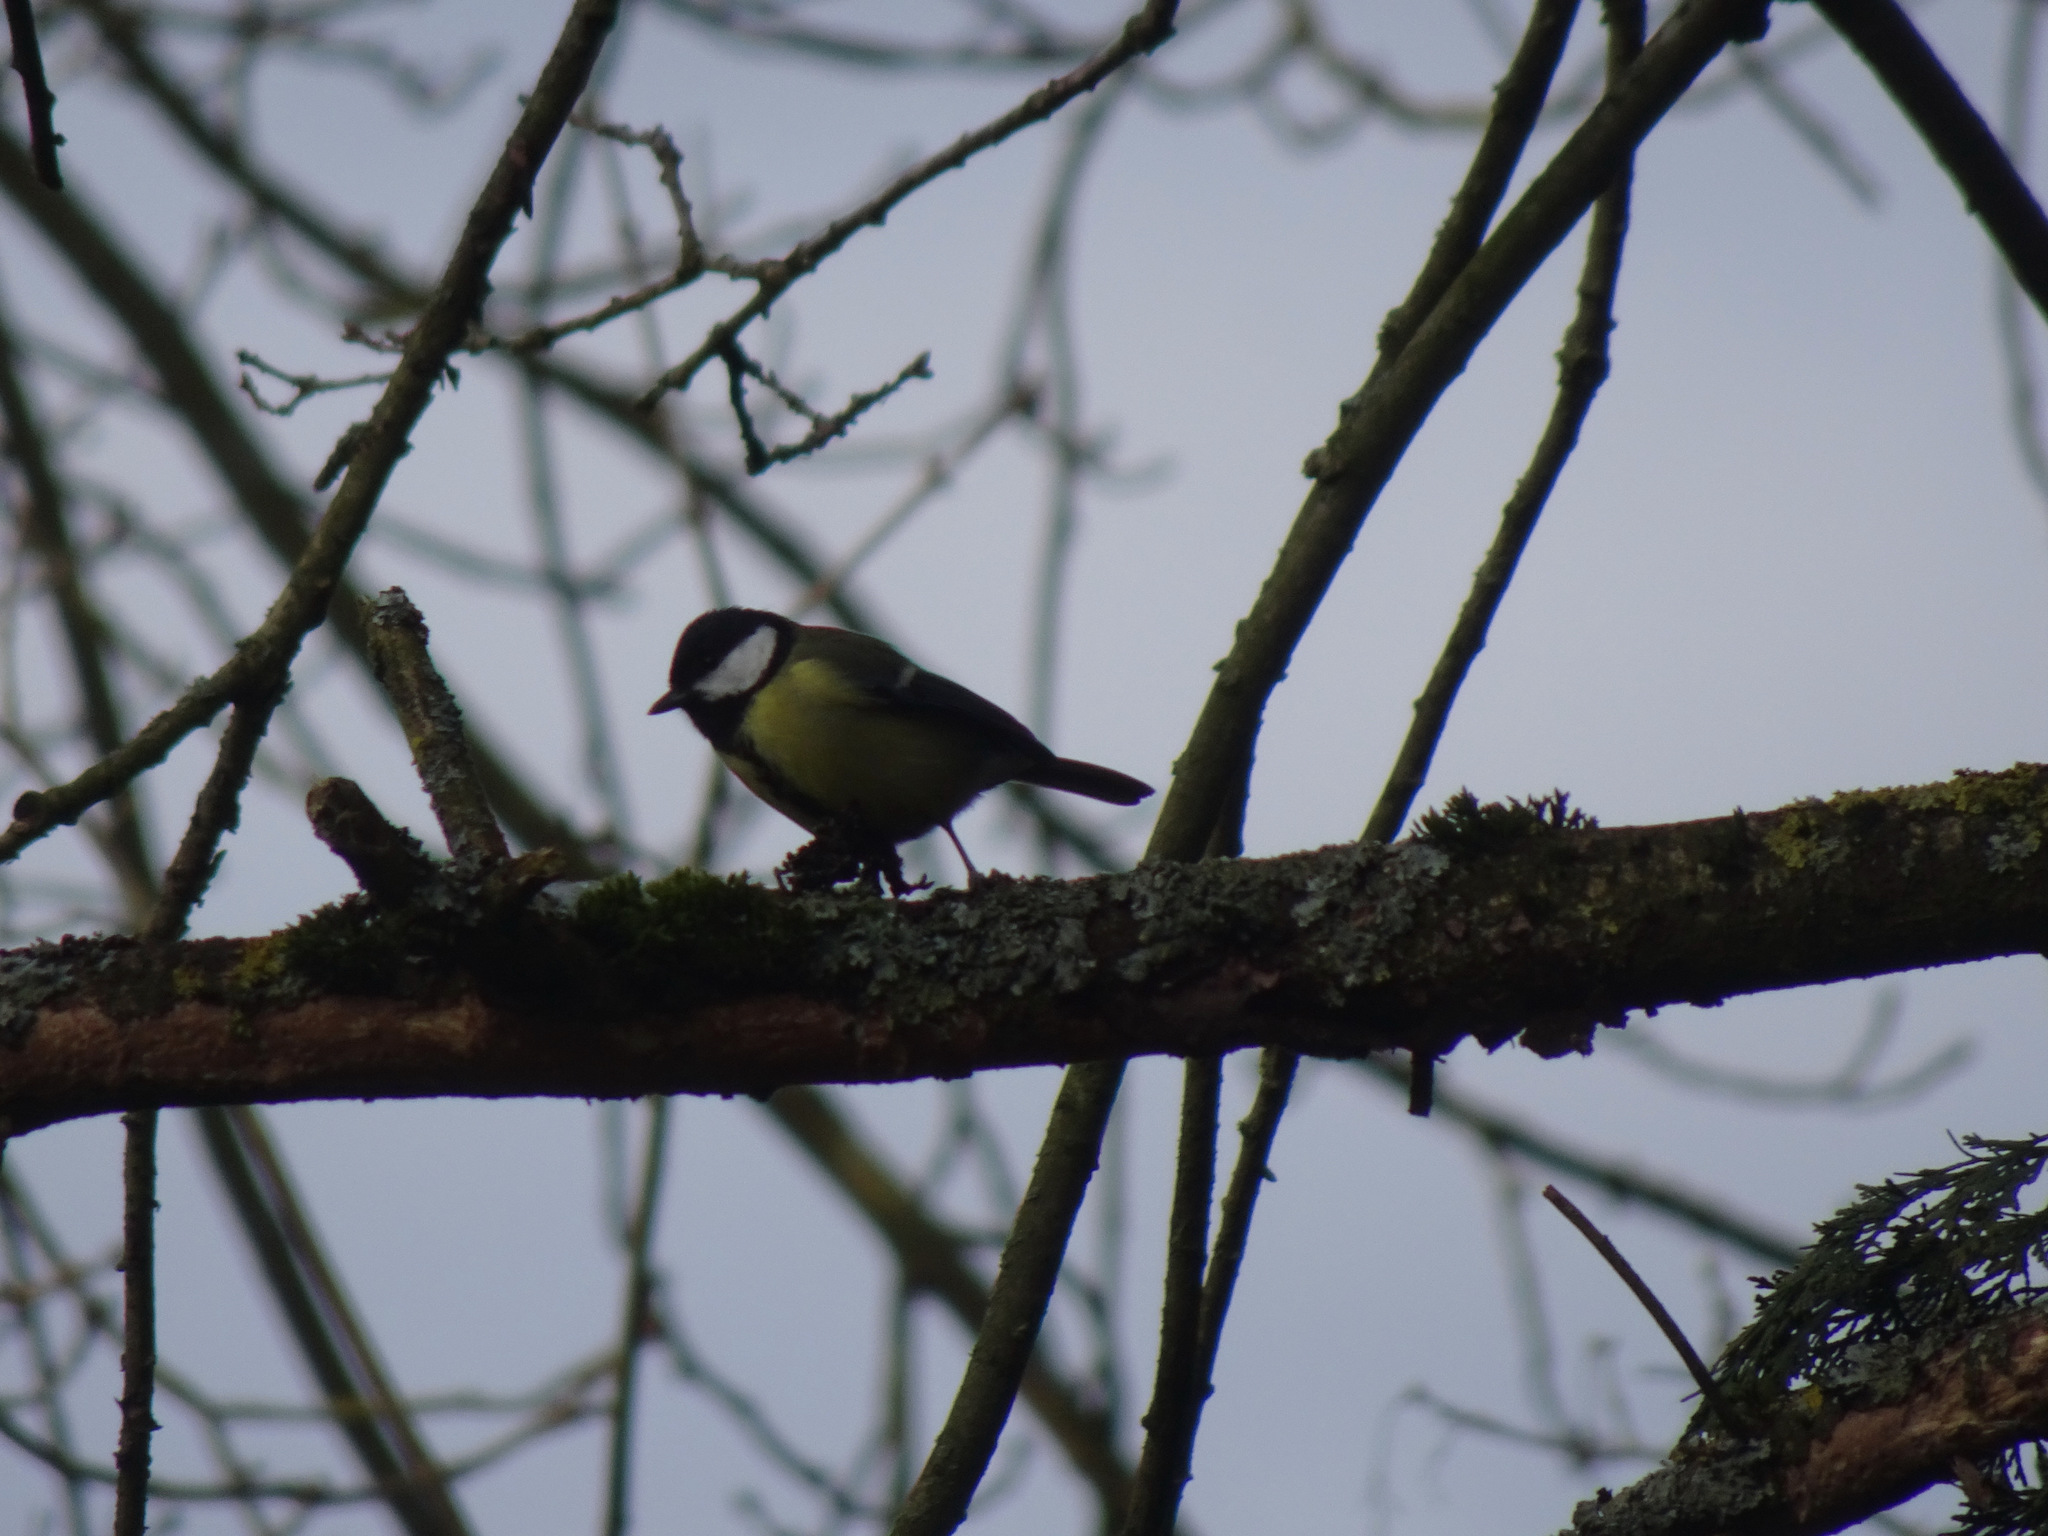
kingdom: Animalia
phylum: Chordata
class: Aves
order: Passeriformes
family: Paridae
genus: Parus
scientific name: Parus major
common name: Great tit
